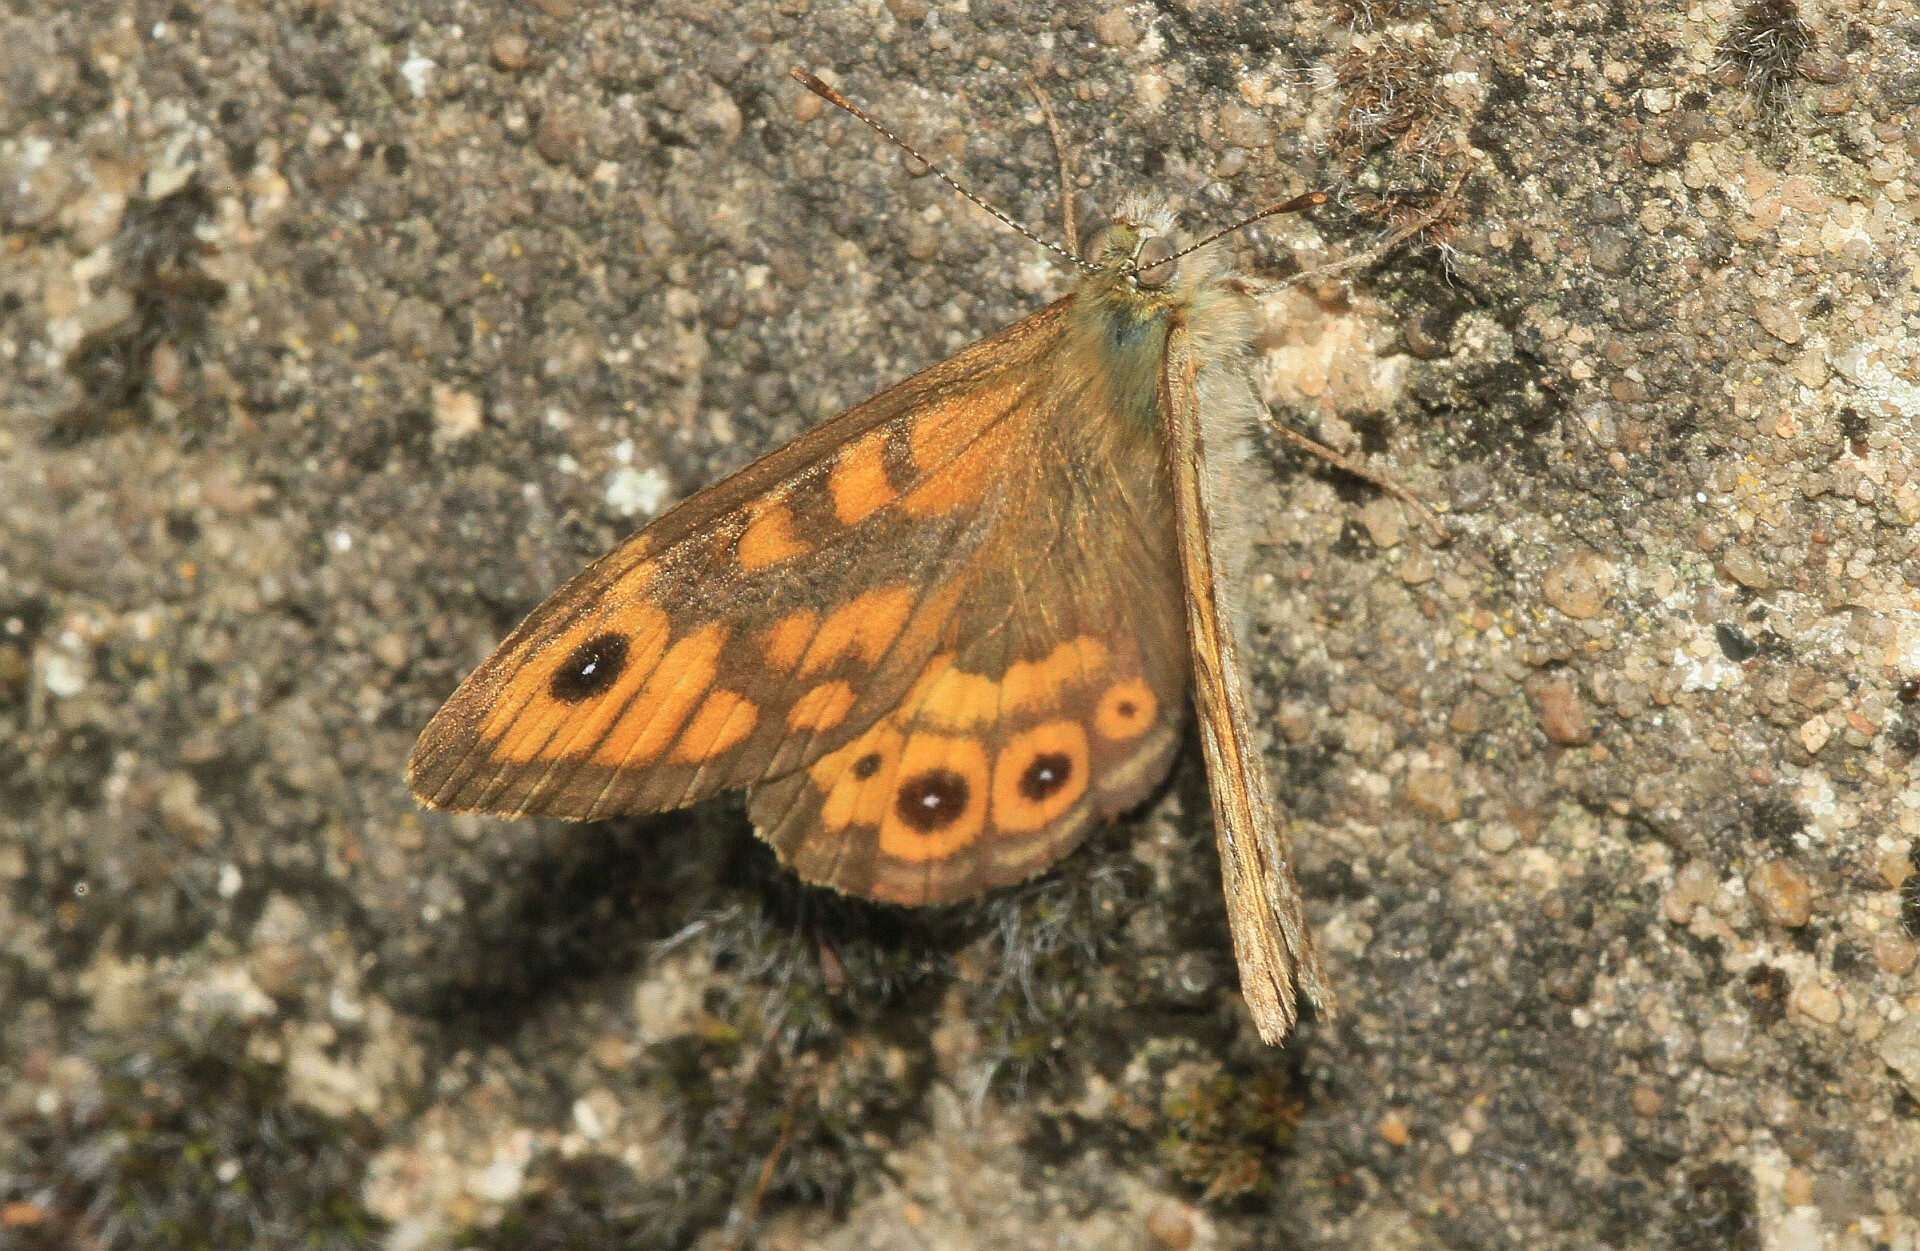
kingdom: Animalia
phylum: Arthropoda
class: Insecta
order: Lepidoptera
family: Nymphalidae
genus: Pararge
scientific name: Pararge Lasiommata megera
